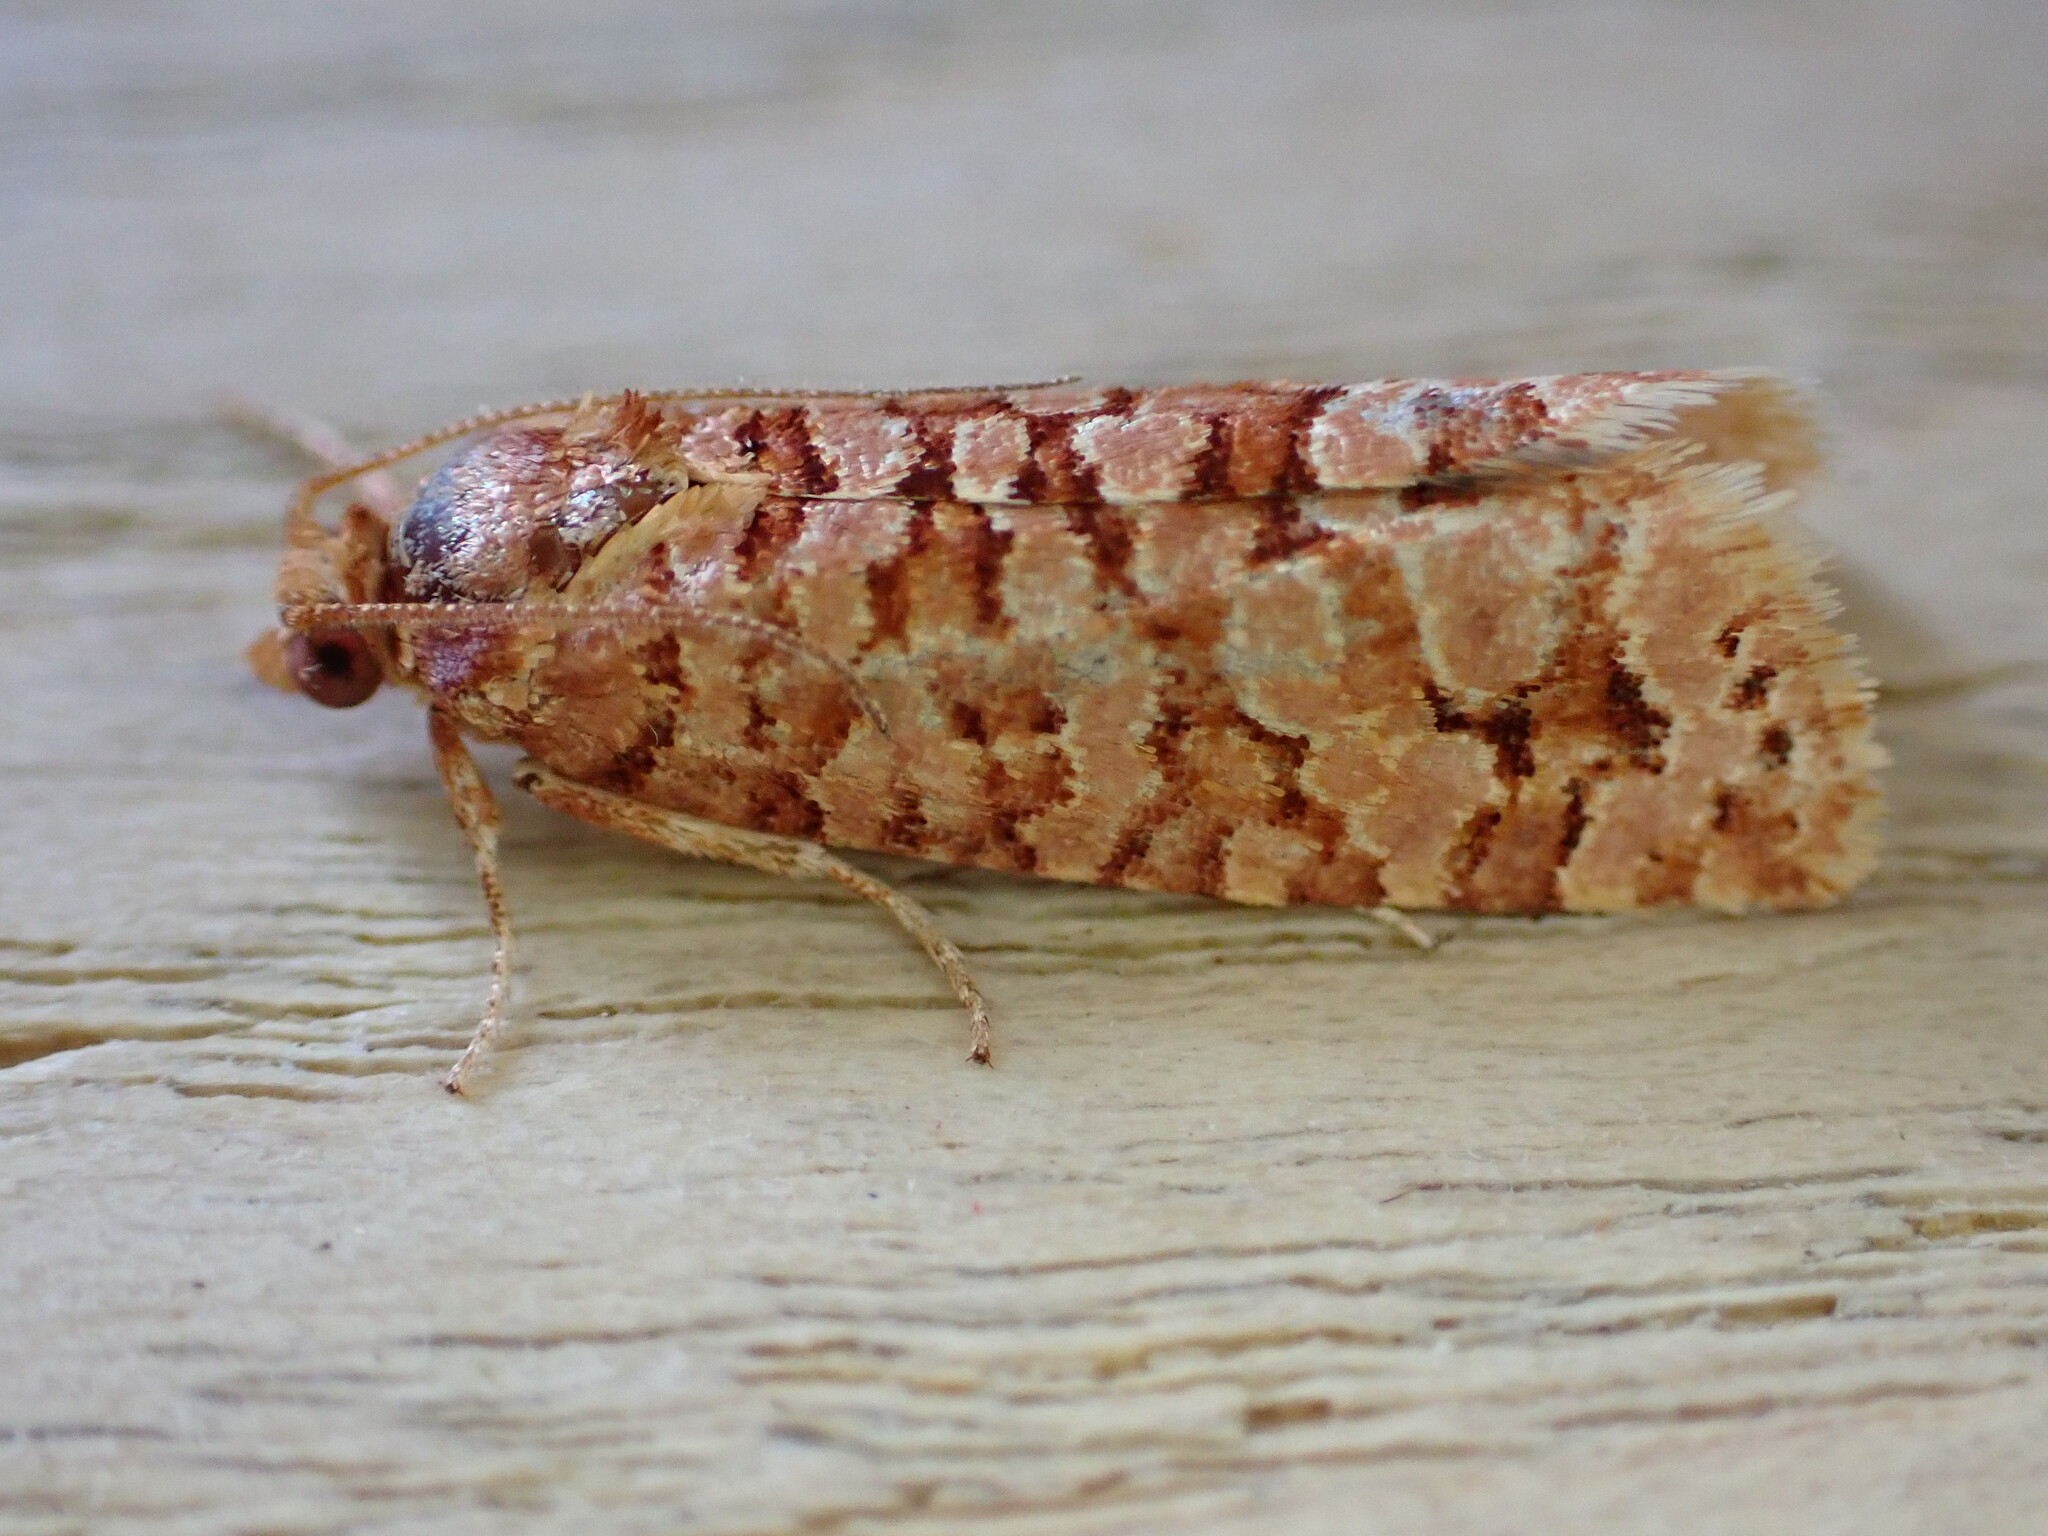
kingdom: Animalia
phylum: Arthropoda
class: Insecta
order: Lepidoptera
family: Tortricidae
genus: Lozotaeniodes
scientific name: Lozotaeniodes formosana
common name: Orange pine twist
